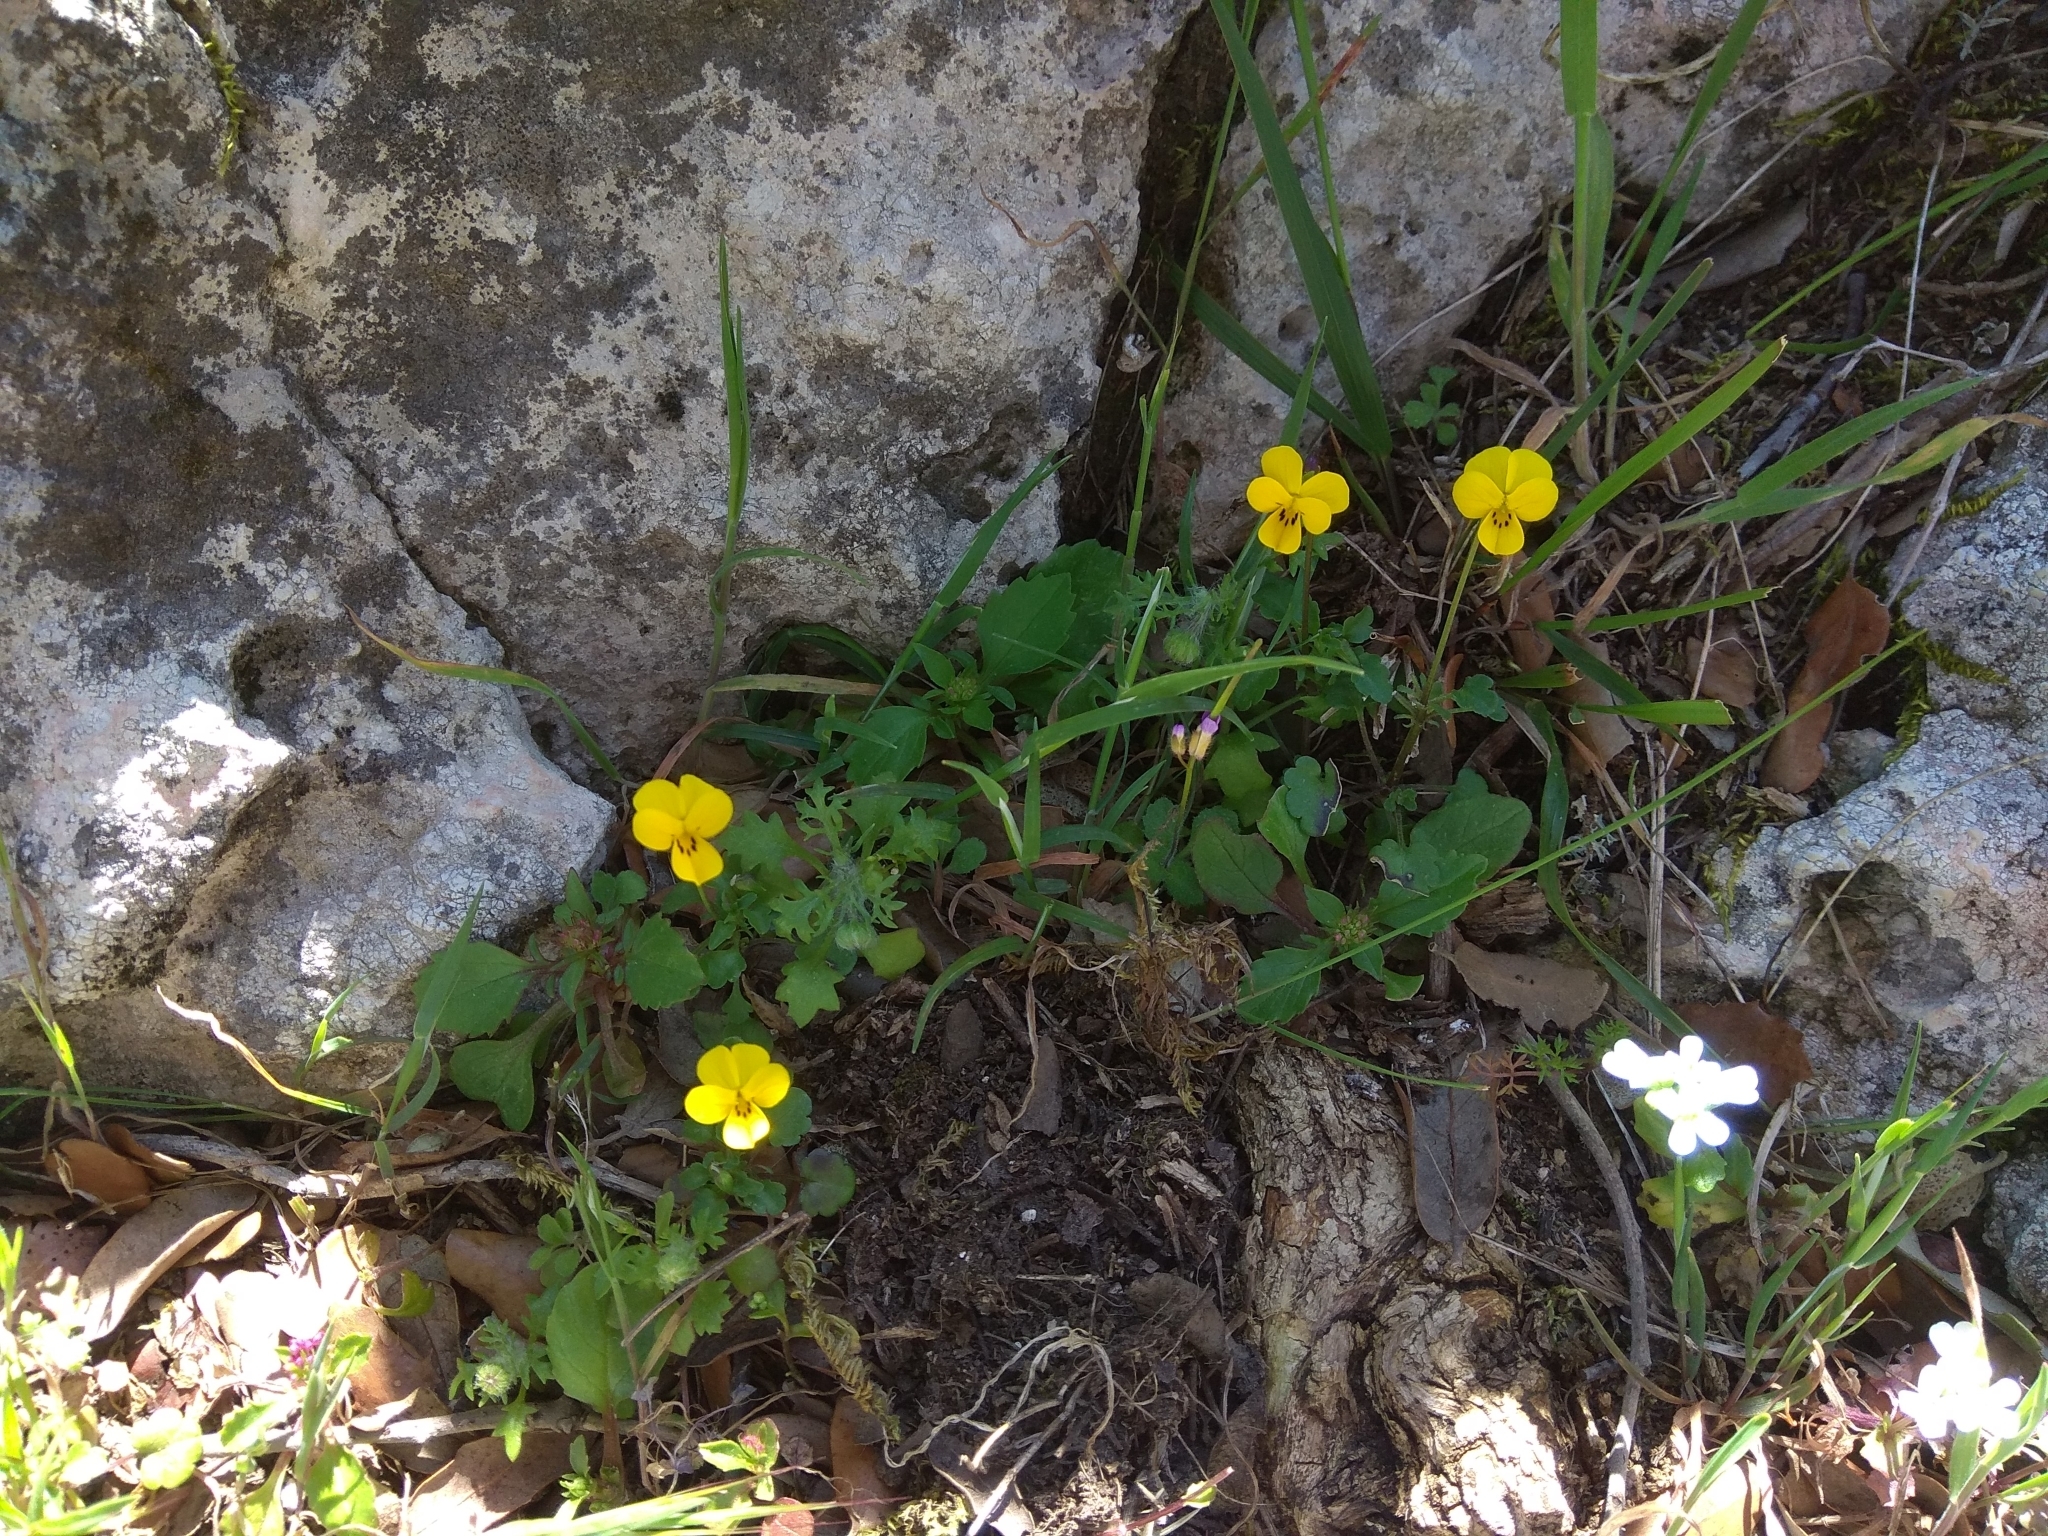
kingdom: Plantae
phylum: Tracheophyta
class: Magnoliopsida
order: Malpighiales
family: Violaceae
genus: Viola
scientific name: Viola demetria
